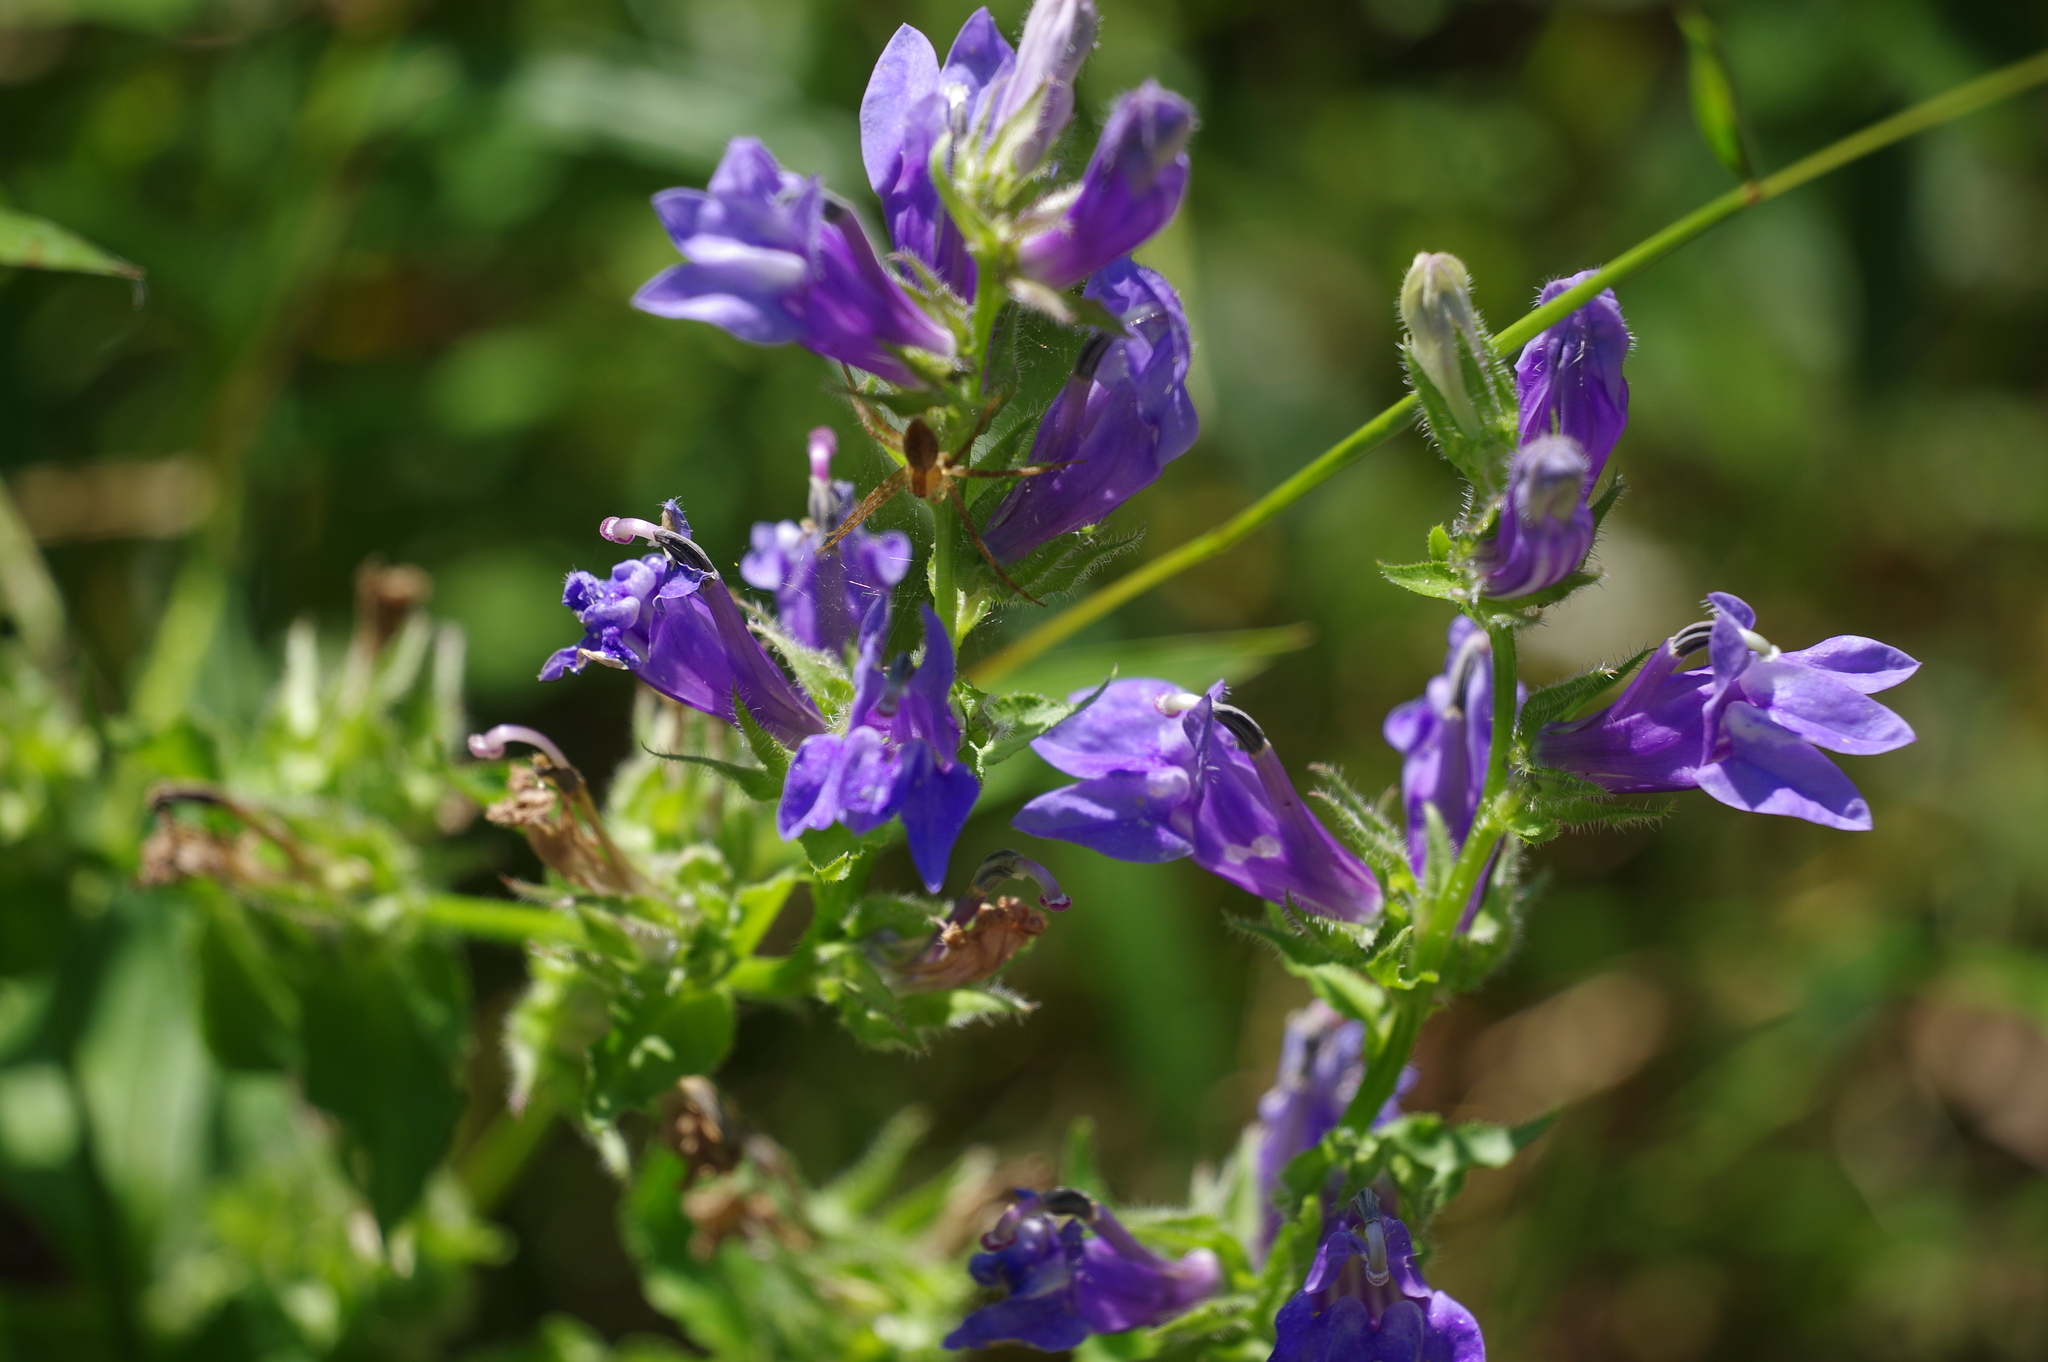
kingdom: Plantae
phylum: Tracheophyta
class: Magnoliopsida
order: Asterales
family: Campanulaceae
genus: Lobelia
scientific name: Lobelia siphilitica
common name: Great lobelia
